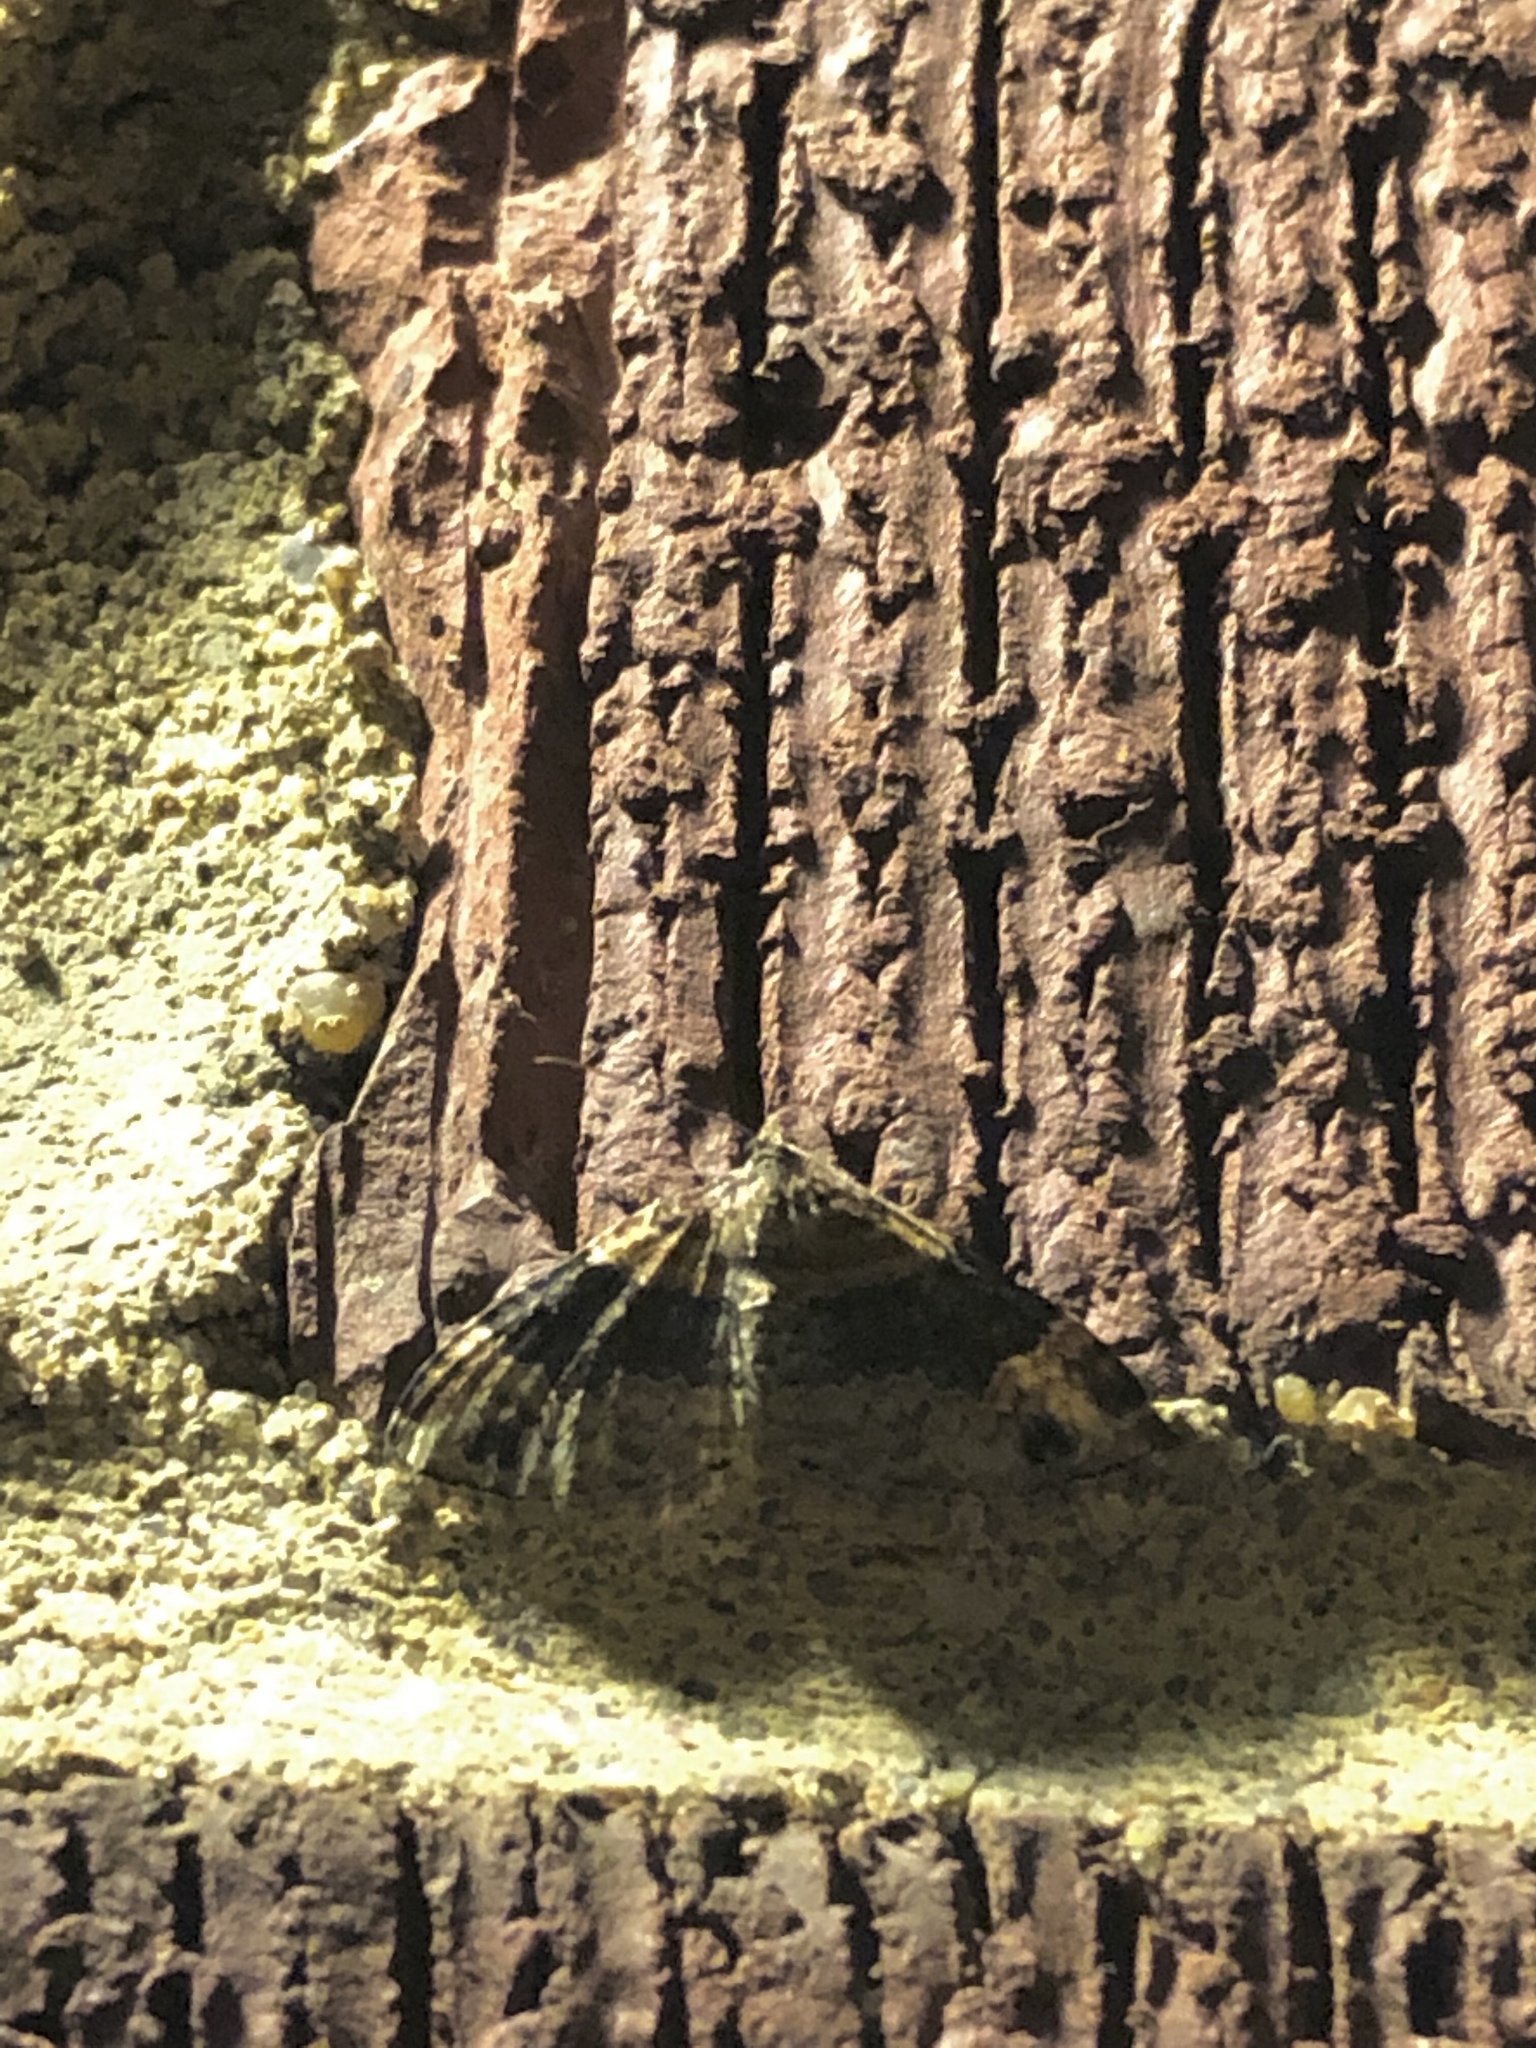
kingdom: Animalia
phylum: Arthropoda
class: Insecta
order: Lepidoptera
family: Geometridae
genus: Xanthorhoe
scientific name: Xanthorhoe ferrugata
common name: Dark-barred twin-spot carpet
